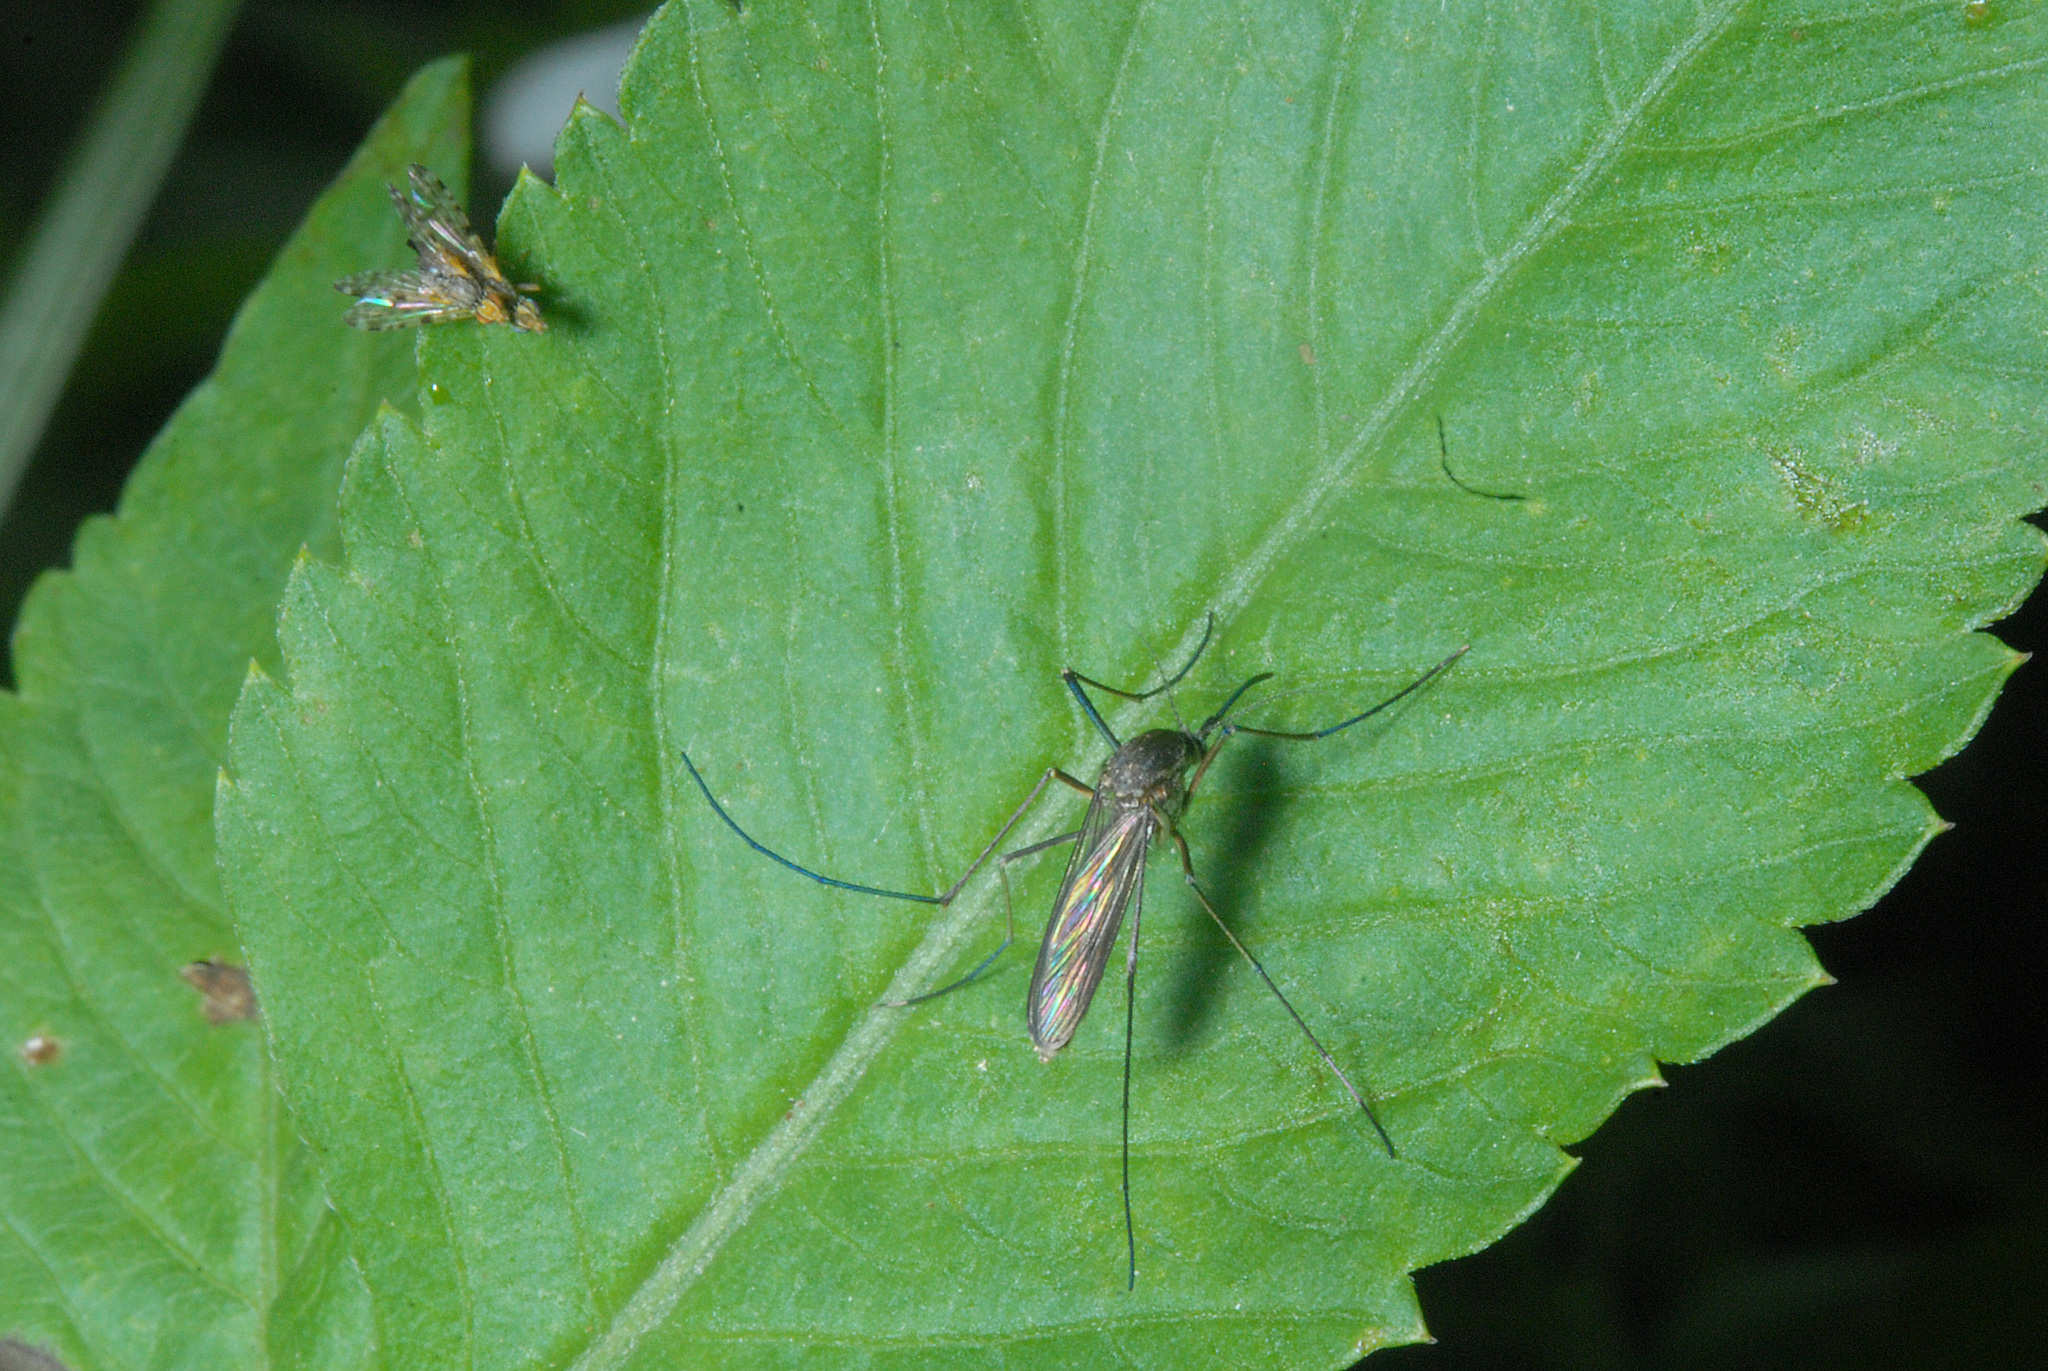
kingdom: Animalia
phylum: Arthropoda
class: Insecta
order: Diptera
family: Culicidae
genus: Armigeres
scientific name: Armigeres subalbatus
